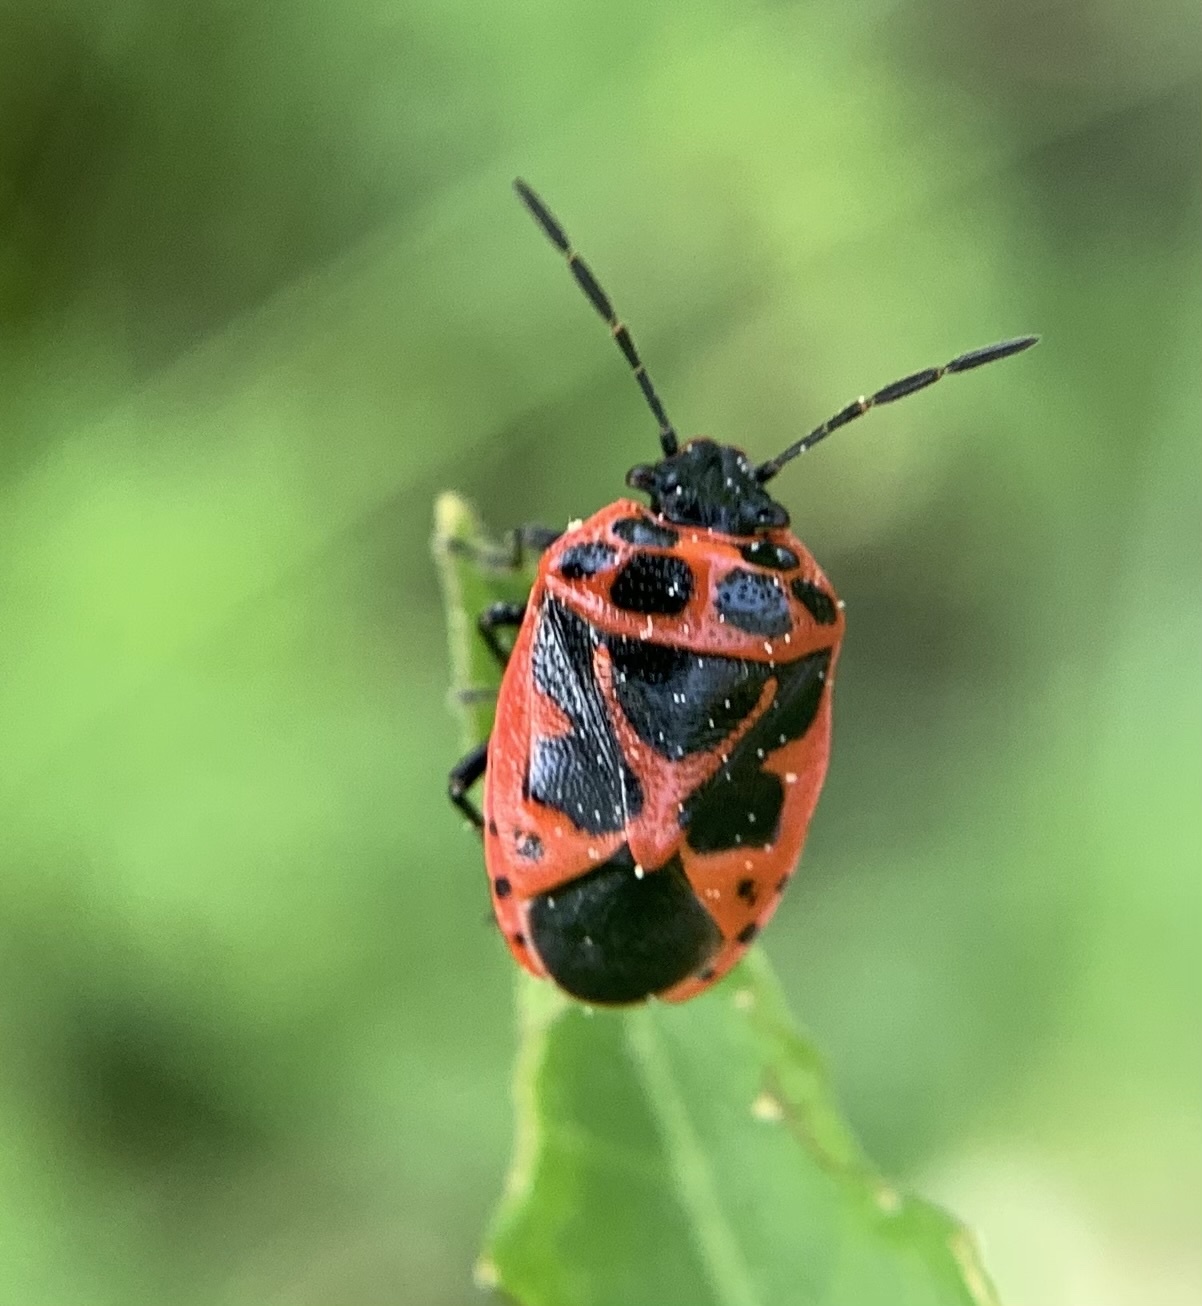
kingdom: Animalia
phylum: Arthropoda
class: Insecta
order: Hemiptera
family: Pentatomidae
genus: Eurydema
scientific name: Eurydema dominulus
